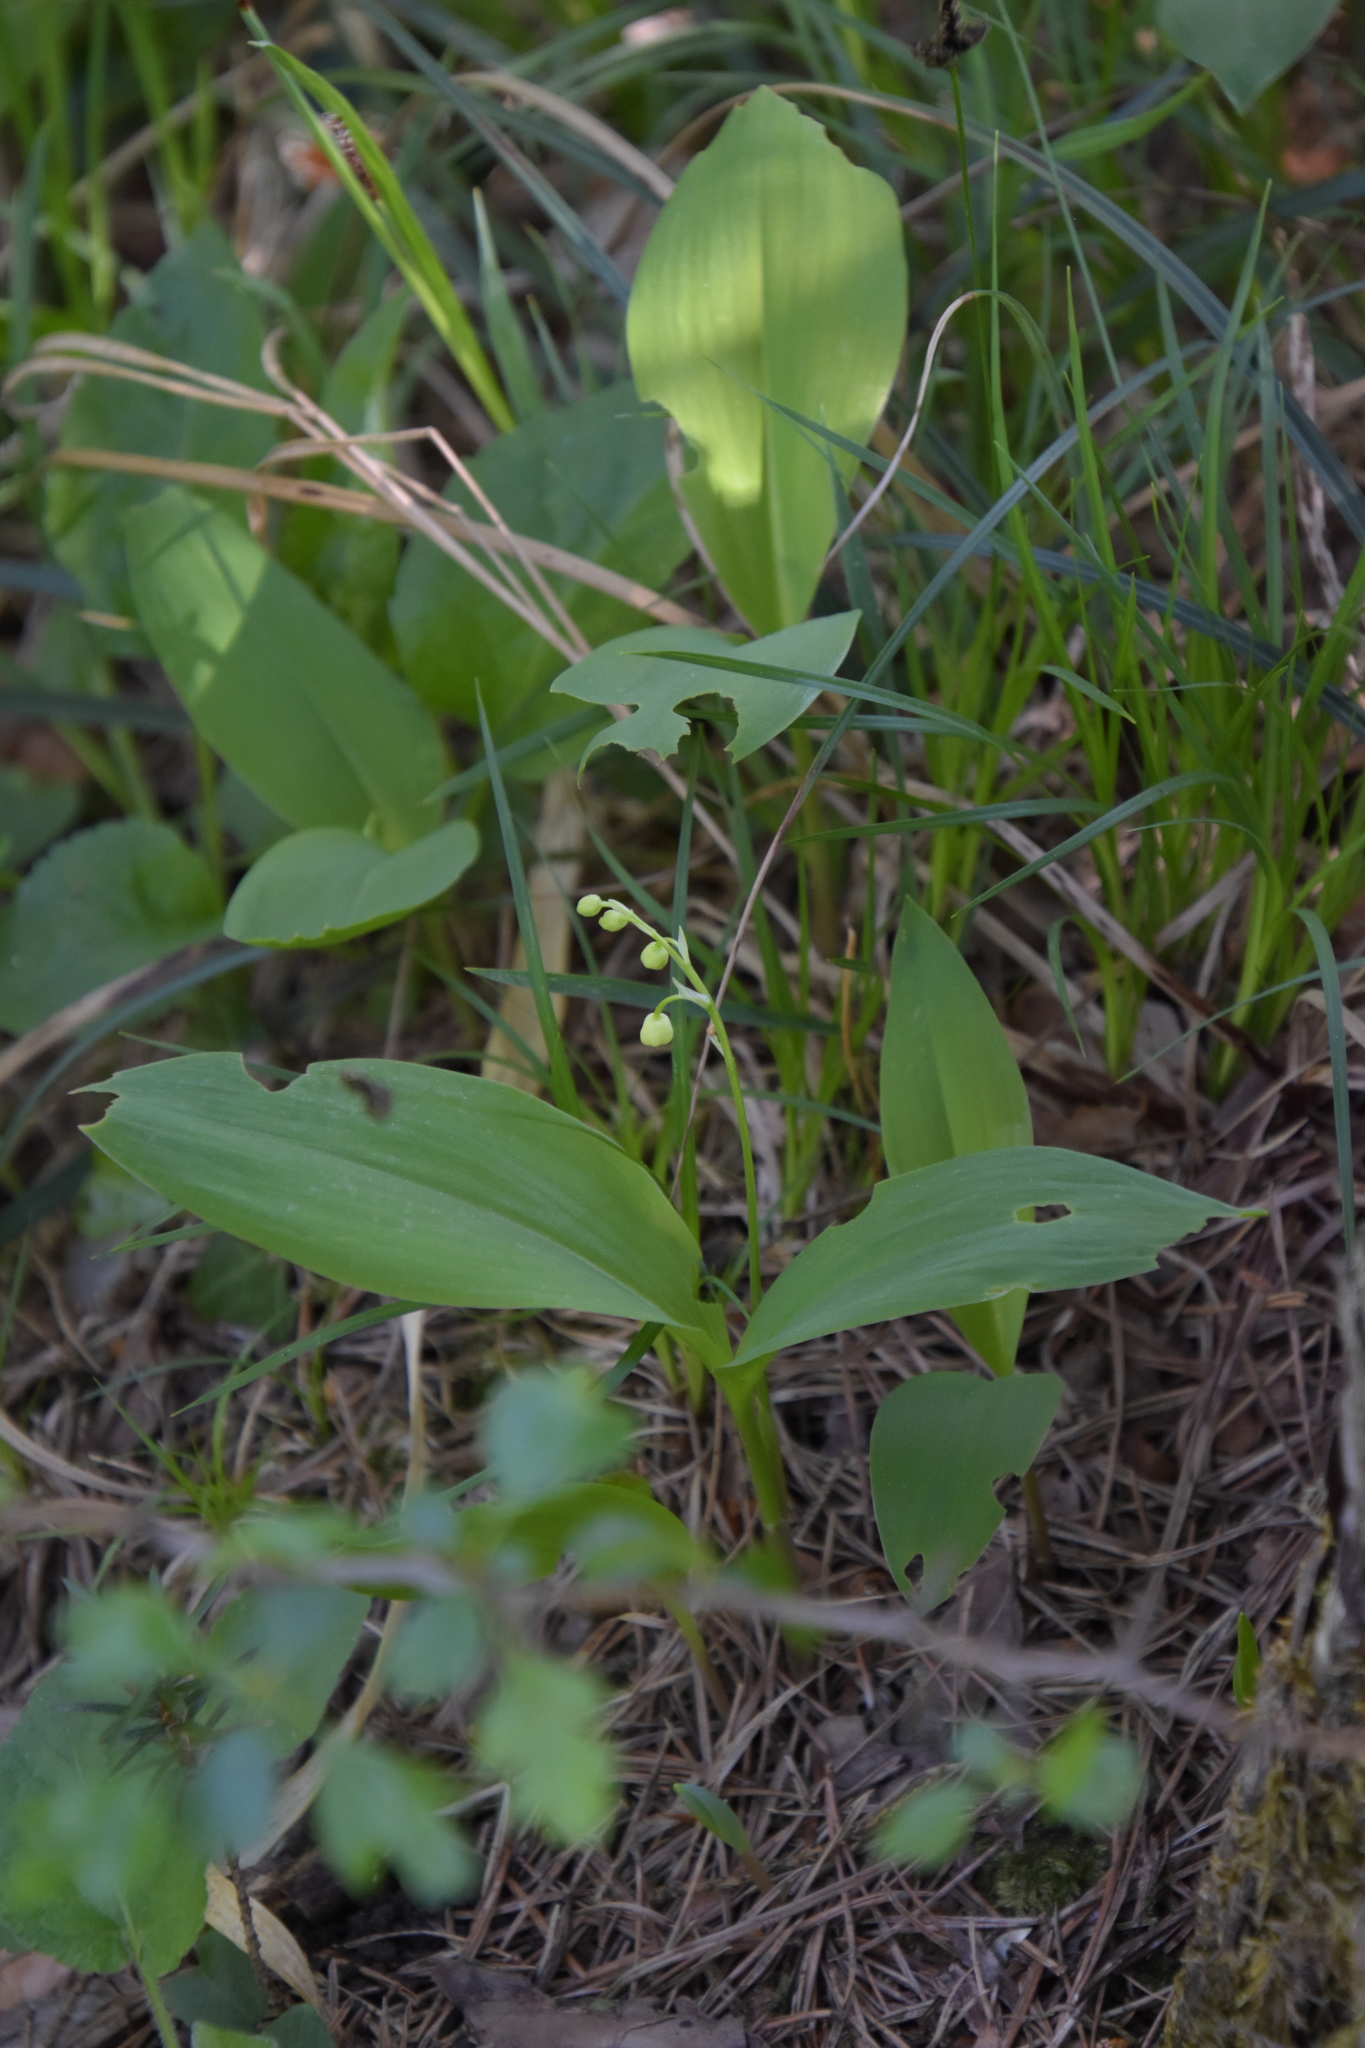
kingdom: Plantae
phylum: Tracheophyta
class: Liliopsida
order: Asparagales
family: Asparagaceae
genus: Convallaria
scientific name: Convallaria majalis
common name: Lily-of-the-valley
